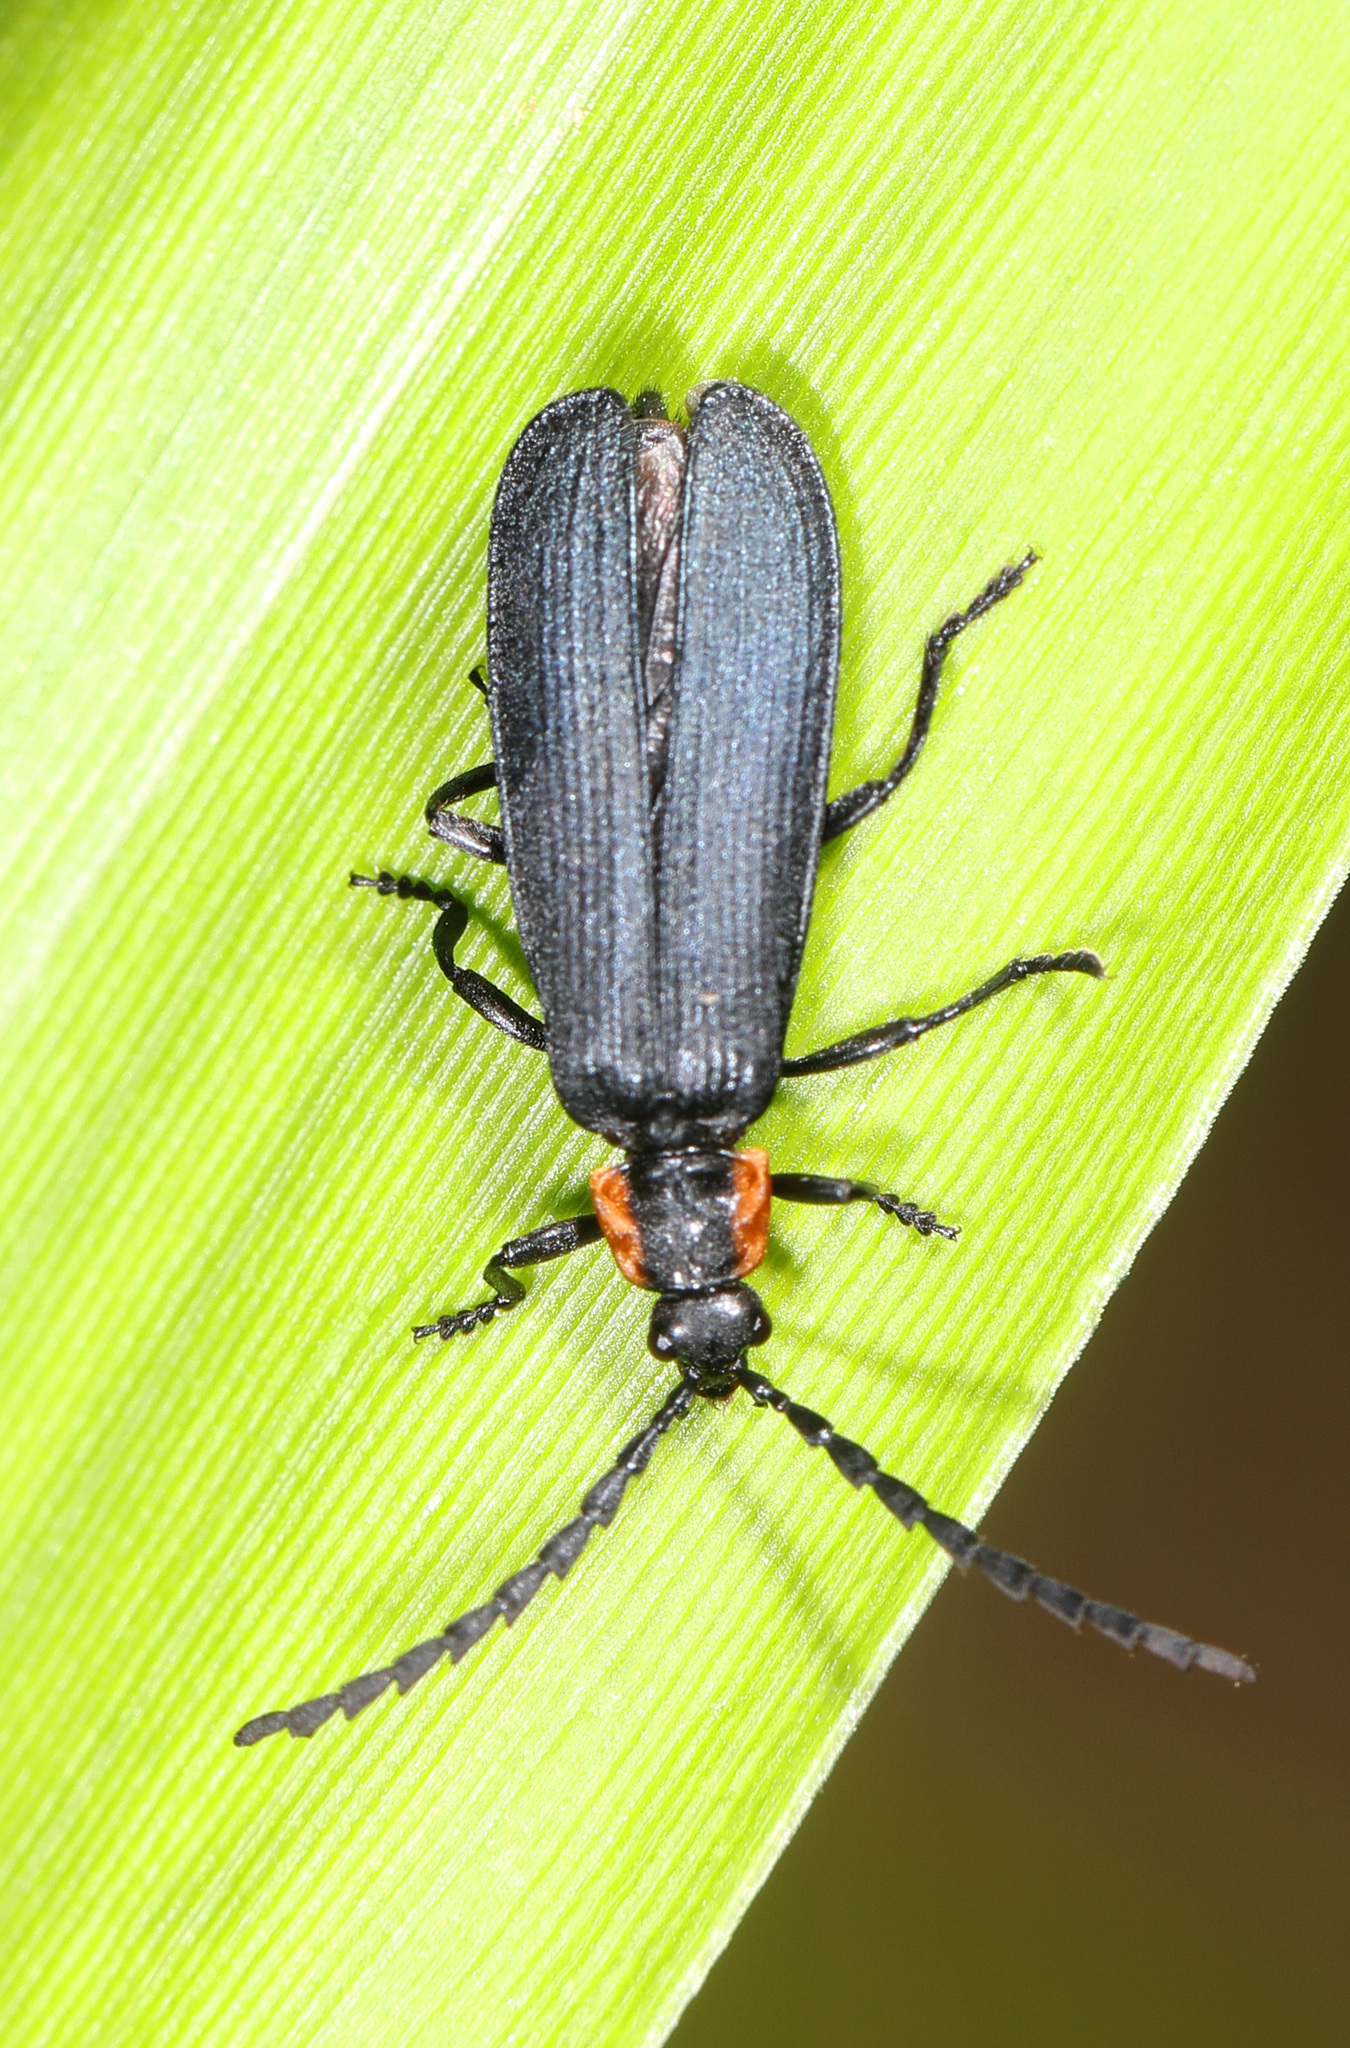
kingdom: Animalia
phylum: Arthropoda
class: Insecta
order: Coleoptera
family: Lycidae
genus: Calochromus
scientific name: Calochromus perfacetus
